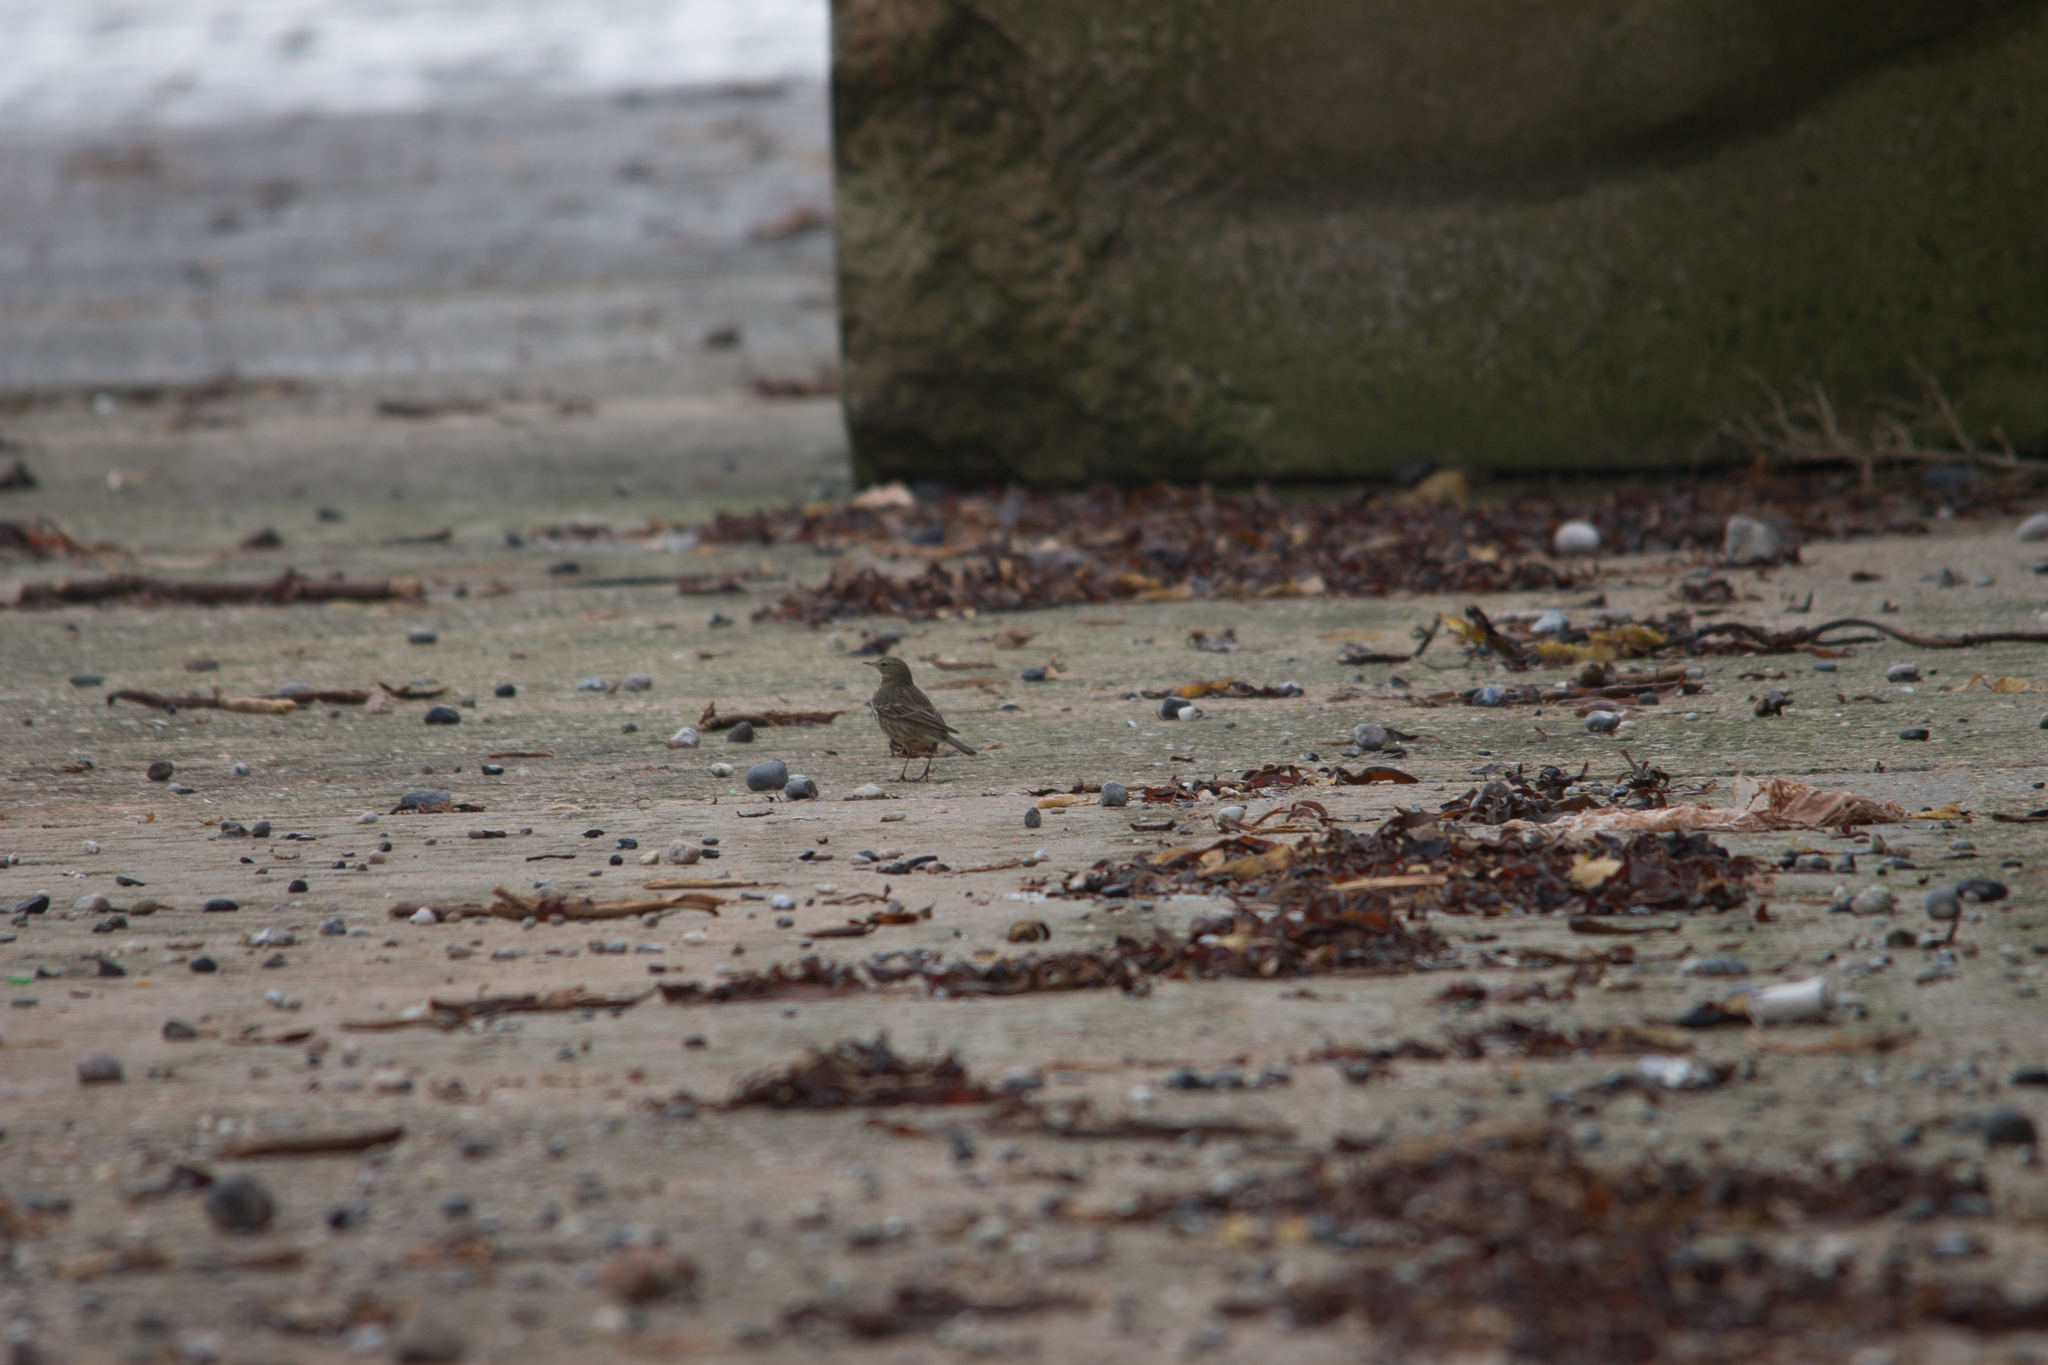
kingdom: Animalia
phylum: Chordata
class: Aves
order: Passeriformes
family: Motacillidae
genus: Anthus
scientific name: Anthus petrosus
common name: Eurasian rock pipit
